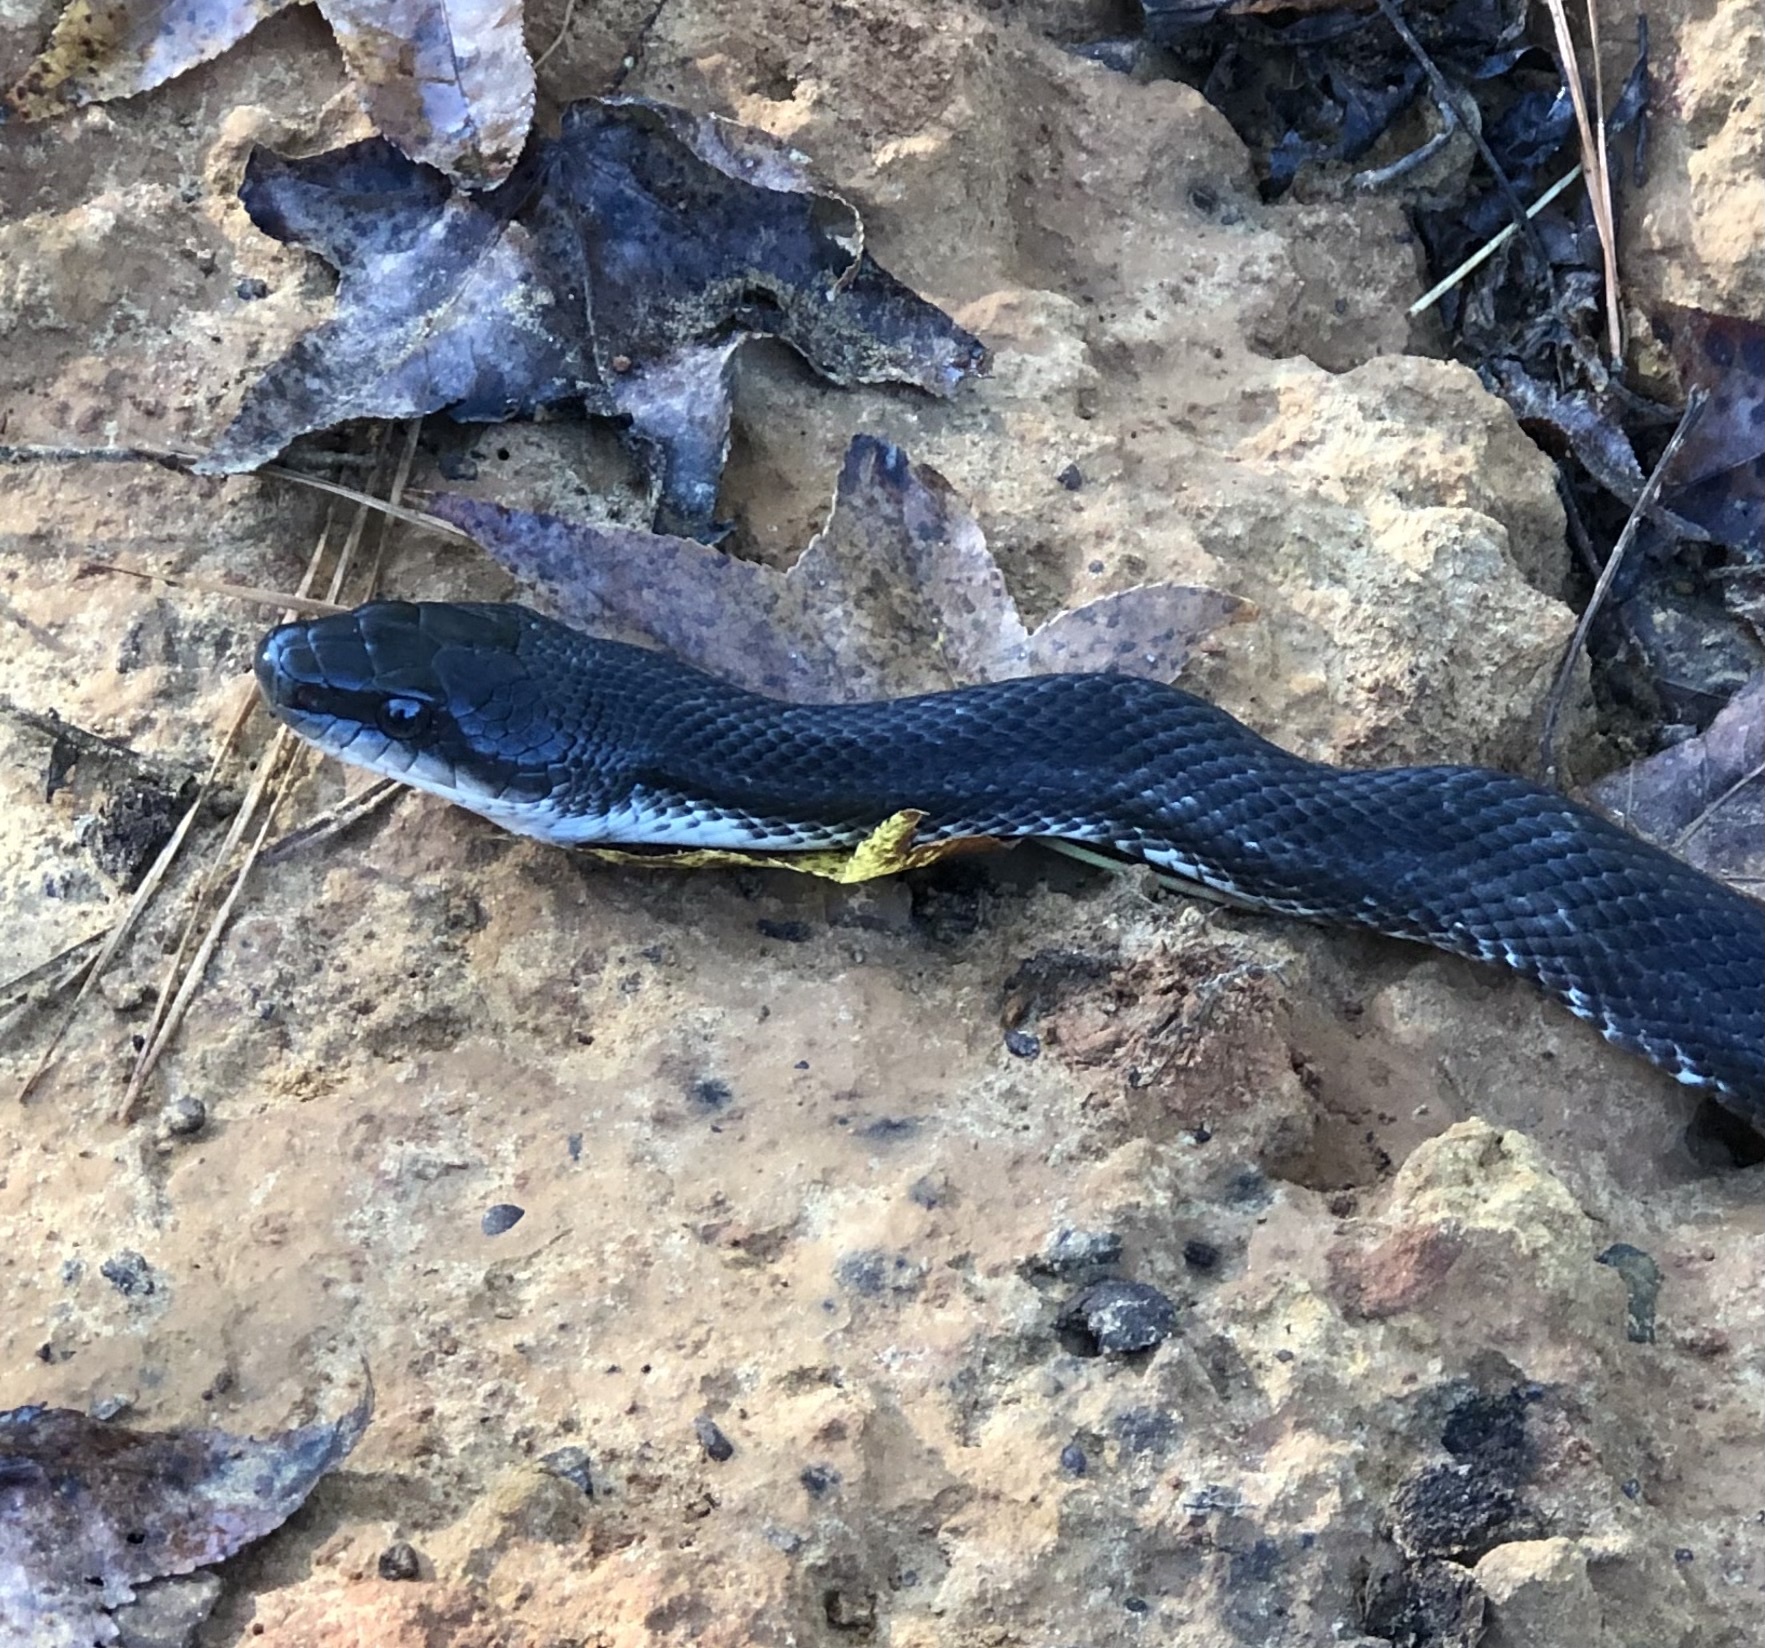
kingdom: Animalia
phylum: Chordata
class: Squamata
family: Colubridae
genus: Pantherophis
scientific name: Pantherophis obsoletus
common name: Black rat snake
